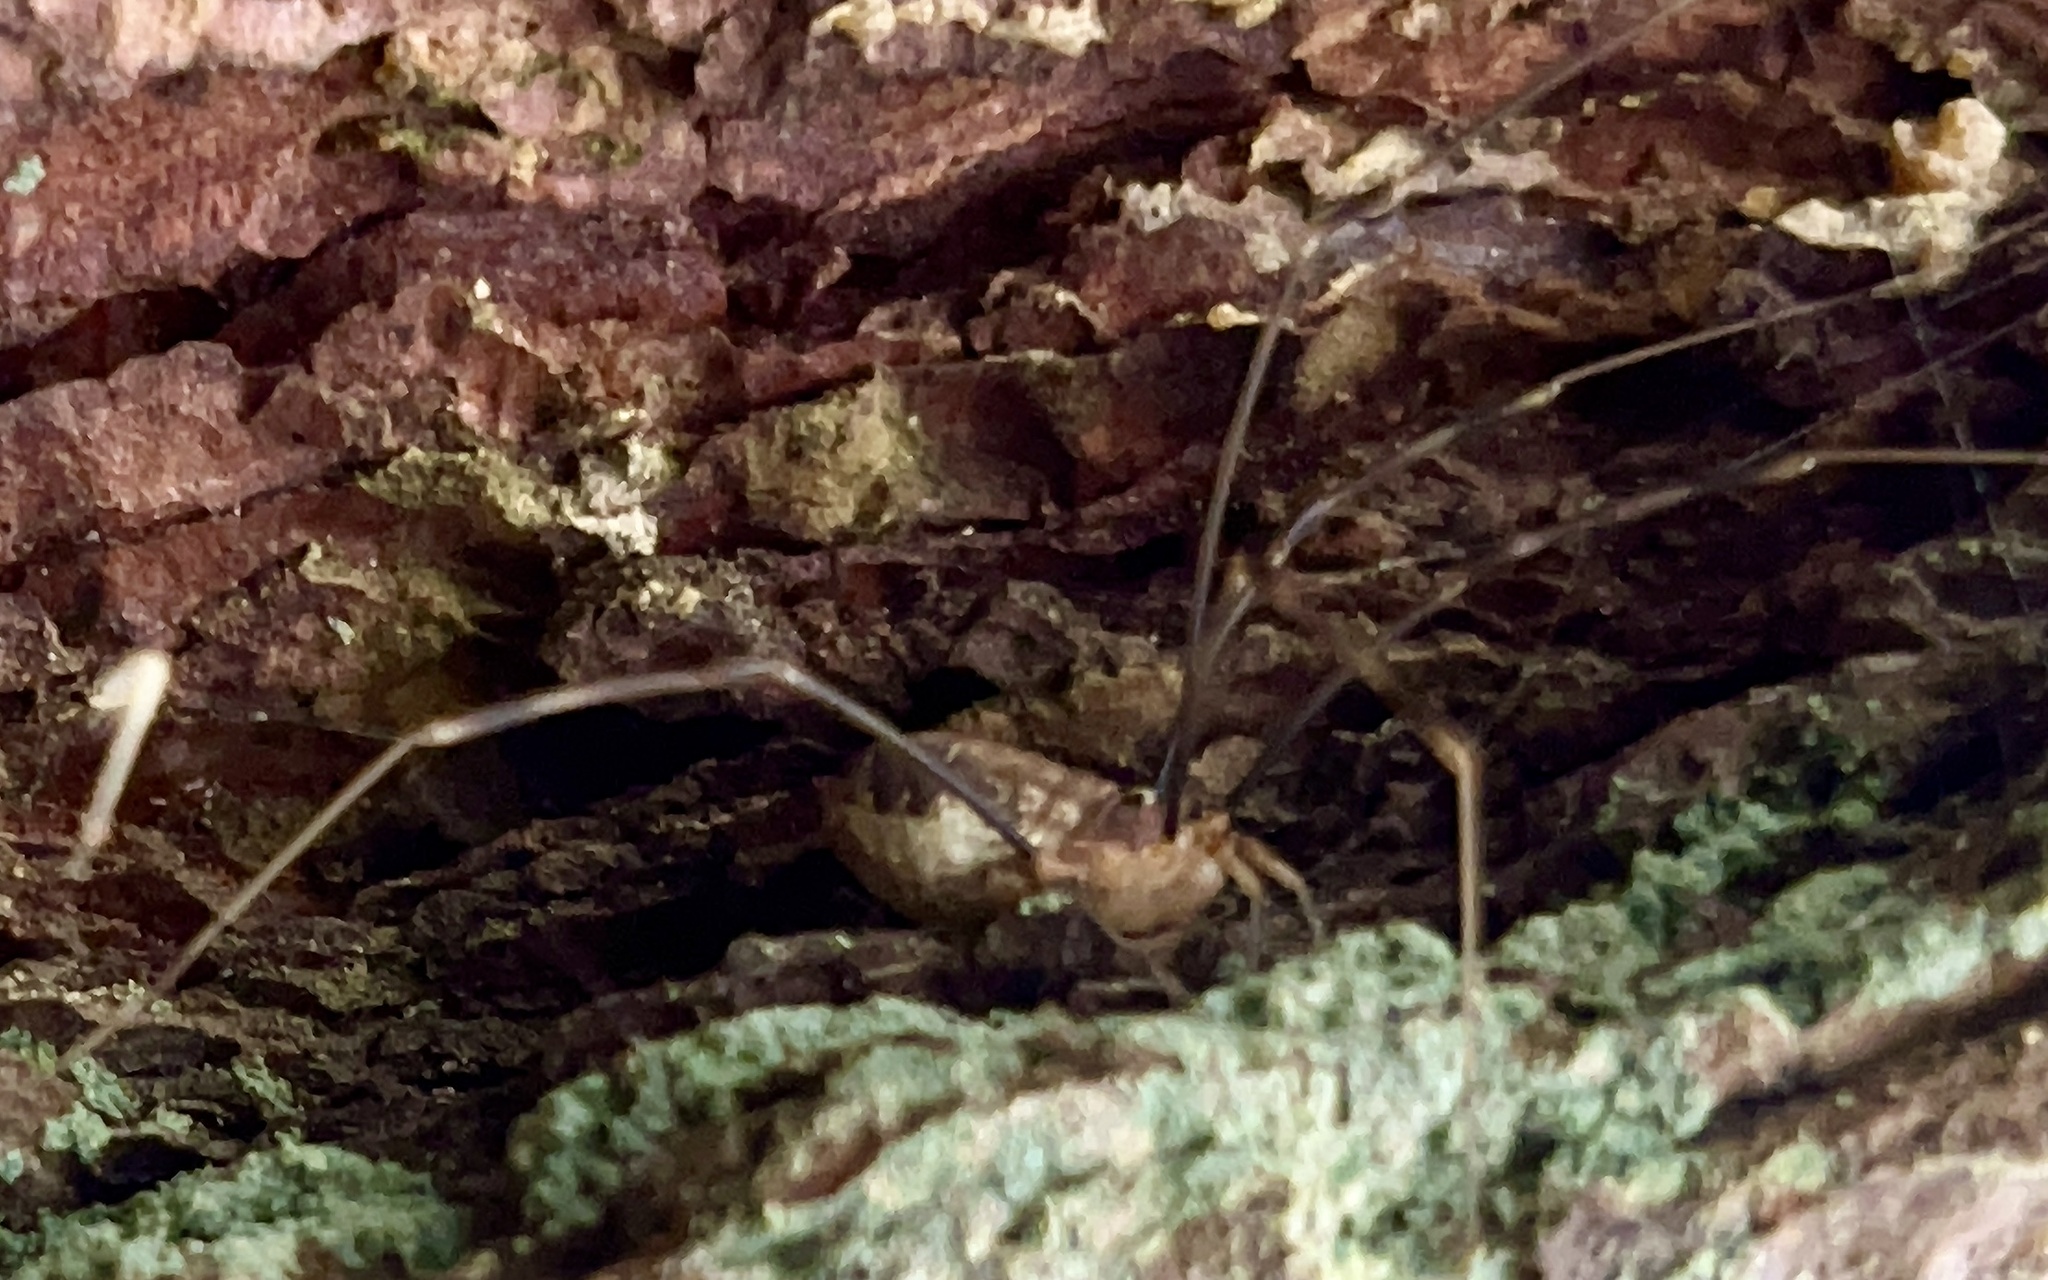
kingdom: Animalia
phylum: Arthropoda
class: Arachnida
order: Opiliones
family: Phalangiidae
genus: Opilio
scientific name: Opilio canestrinii
